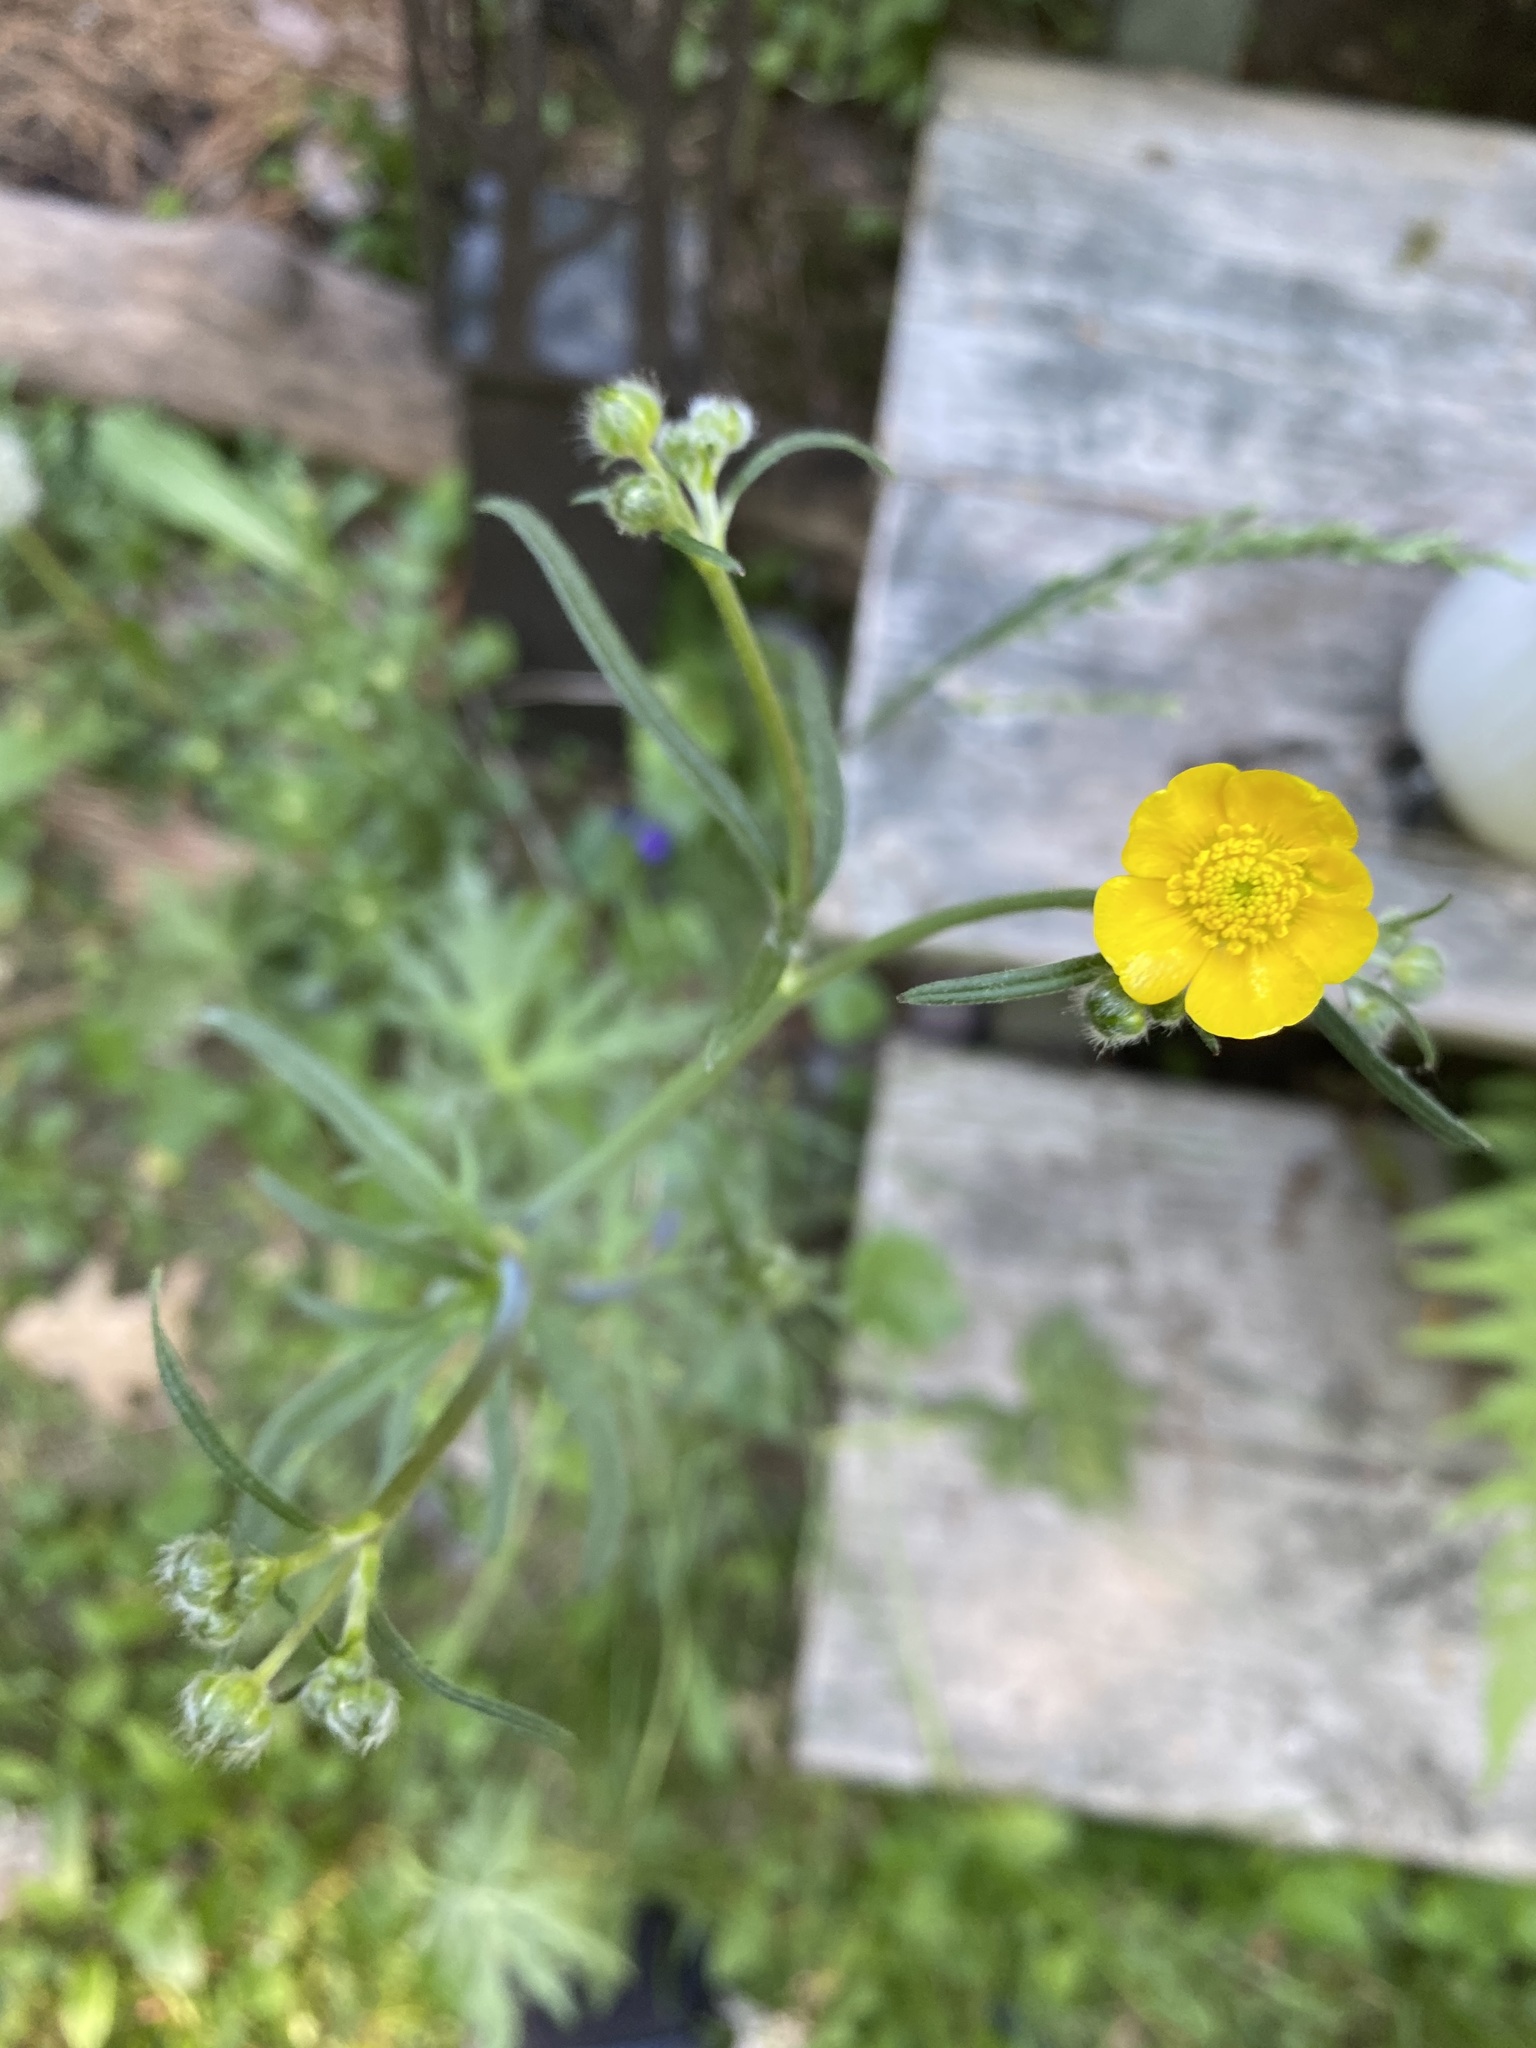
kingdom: Plantae
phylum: Tracheophyta
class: Magnoliopsida
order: Ranunculales
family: Ranunculaceae
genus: Ranunculus
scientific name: Ranunculus acris
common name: Meadow buttercup
